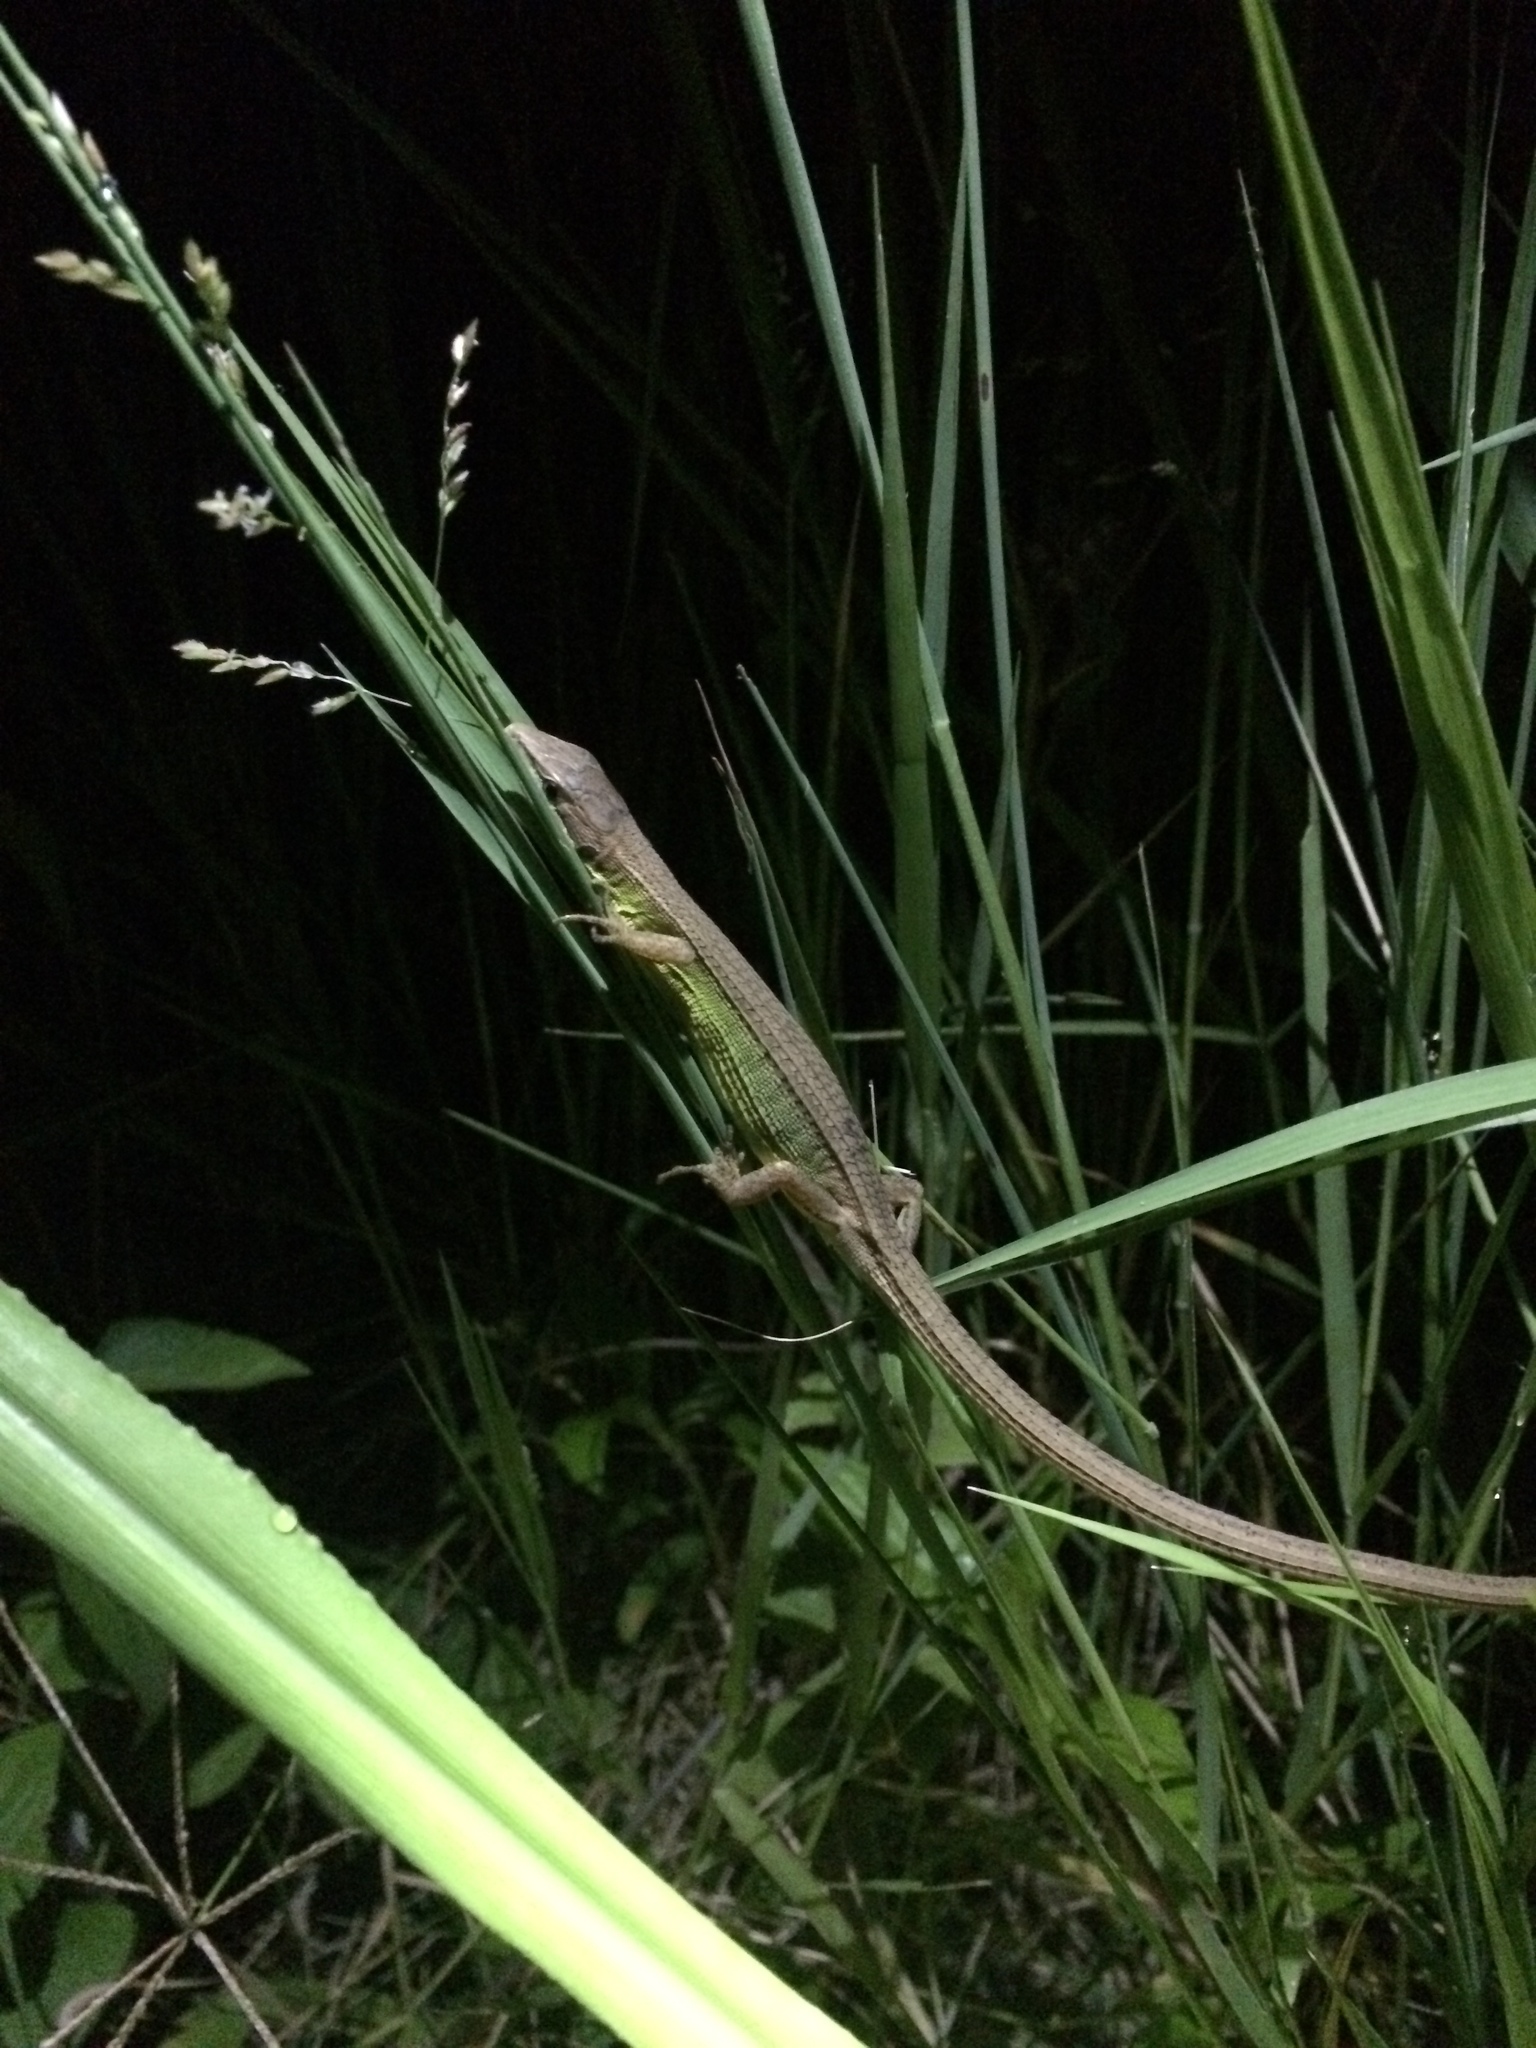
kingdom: Animalia
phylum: Chordata
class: Squamata
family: Lacertidae
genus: Takydromus
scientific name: Takydromus stejnegeri
